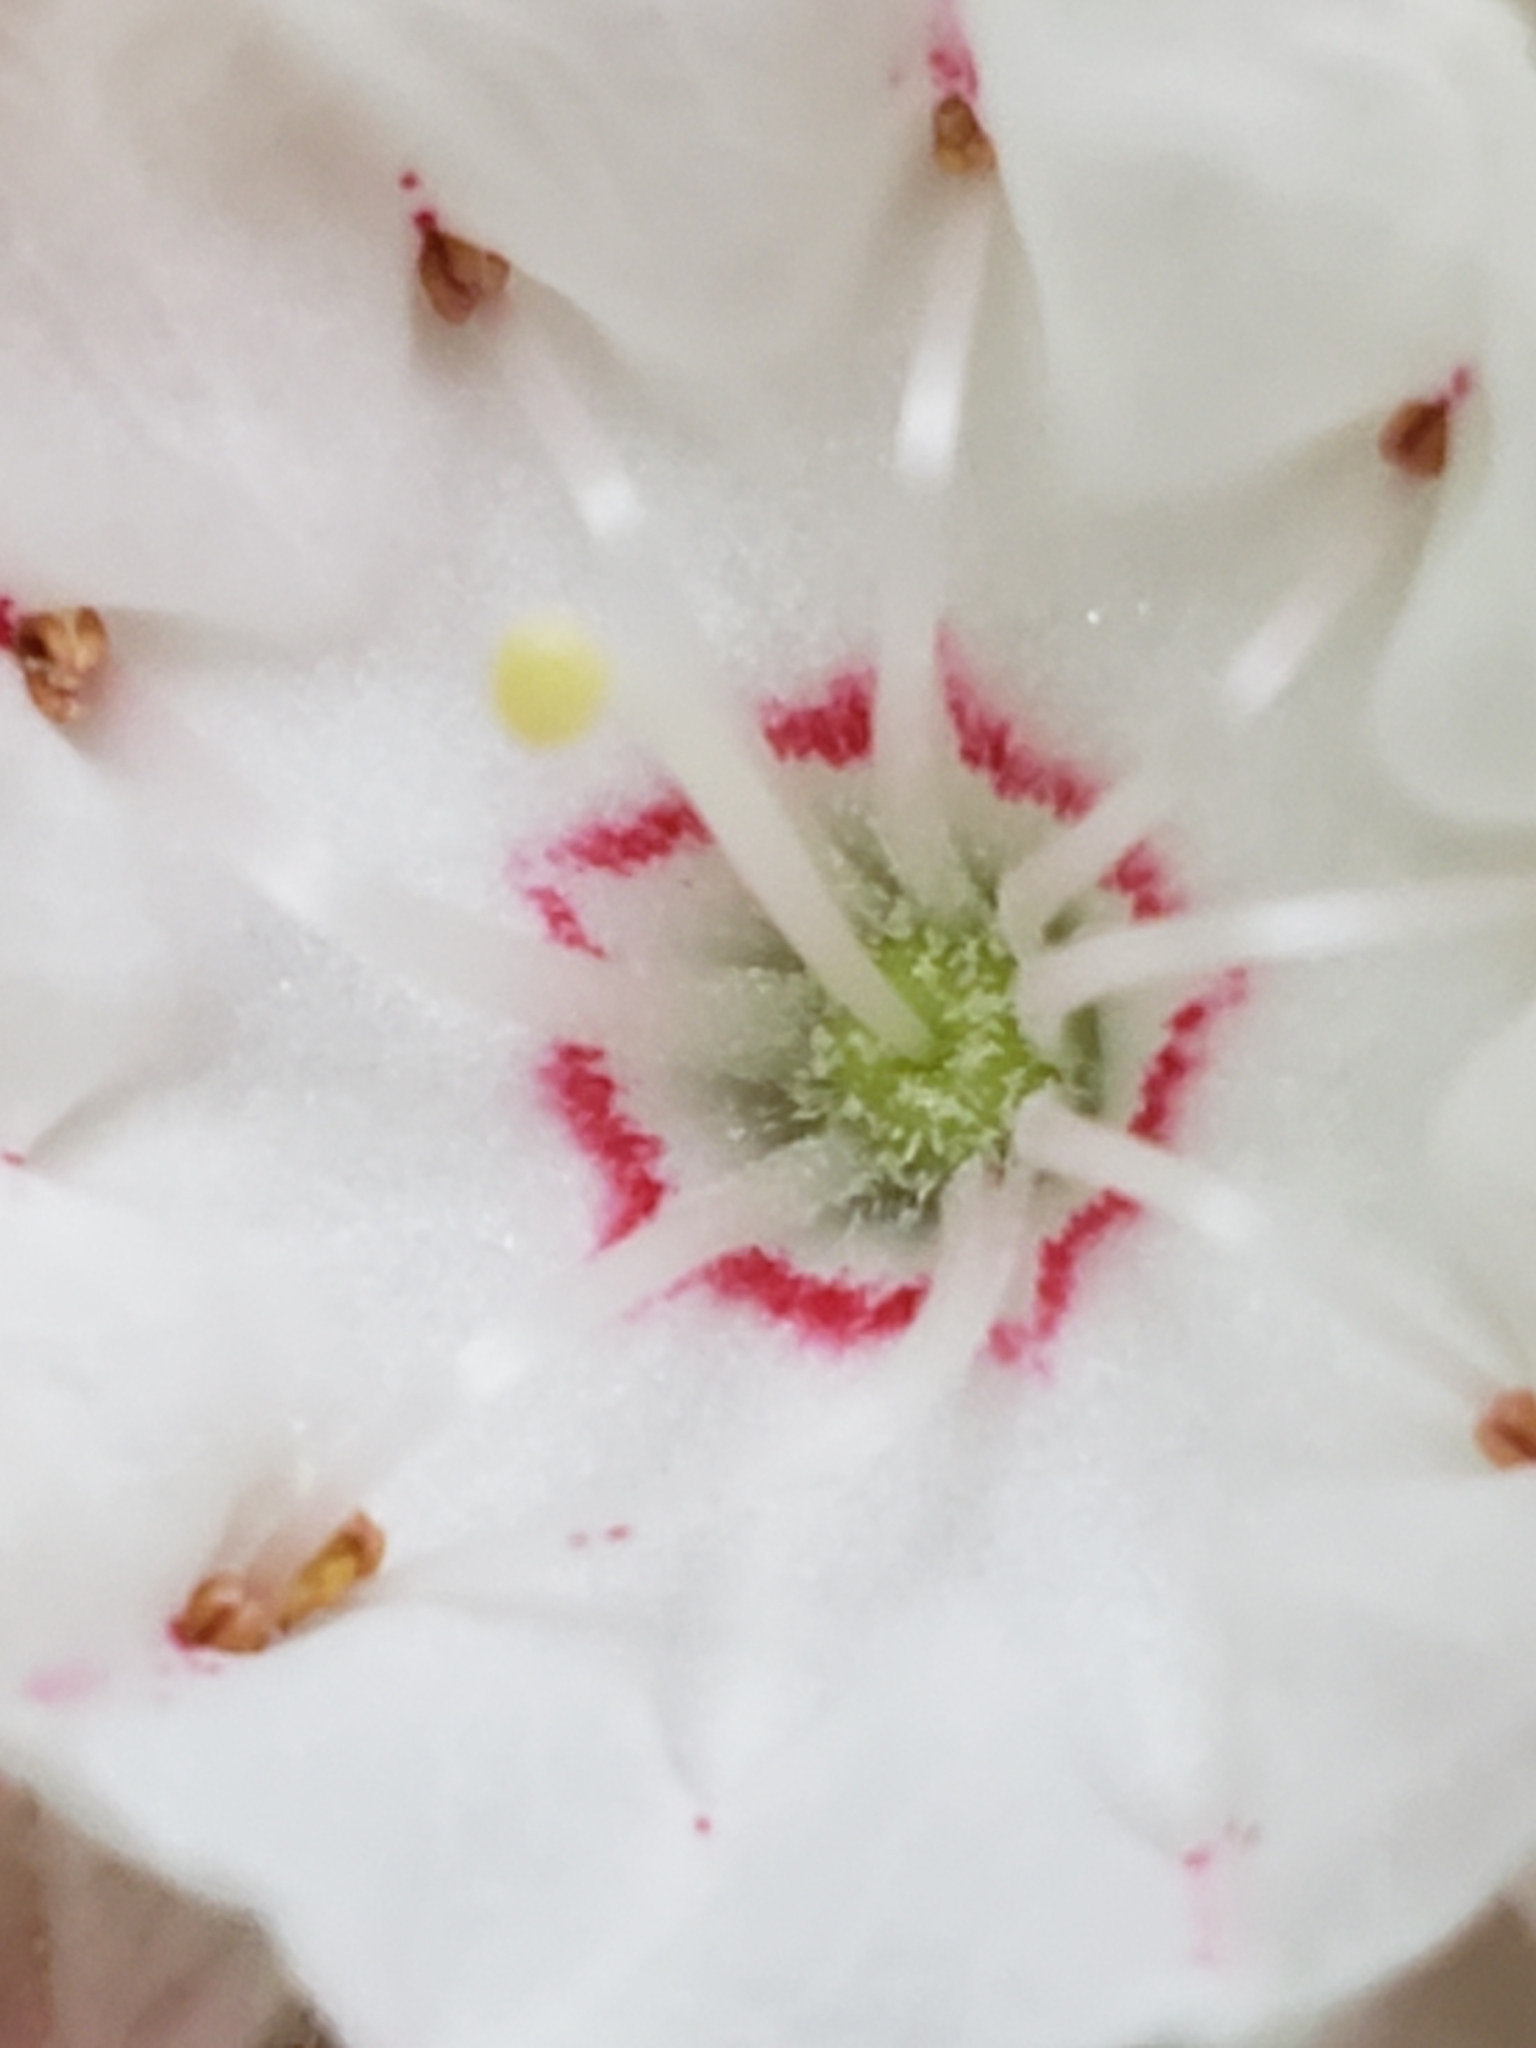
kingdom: Plantae
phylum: Tracheophyta
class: Magnoliopsida
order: Ericales
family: Ericaceae
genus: Kalmia
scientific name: Kalmia latifolia
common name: Mountain-laurel
